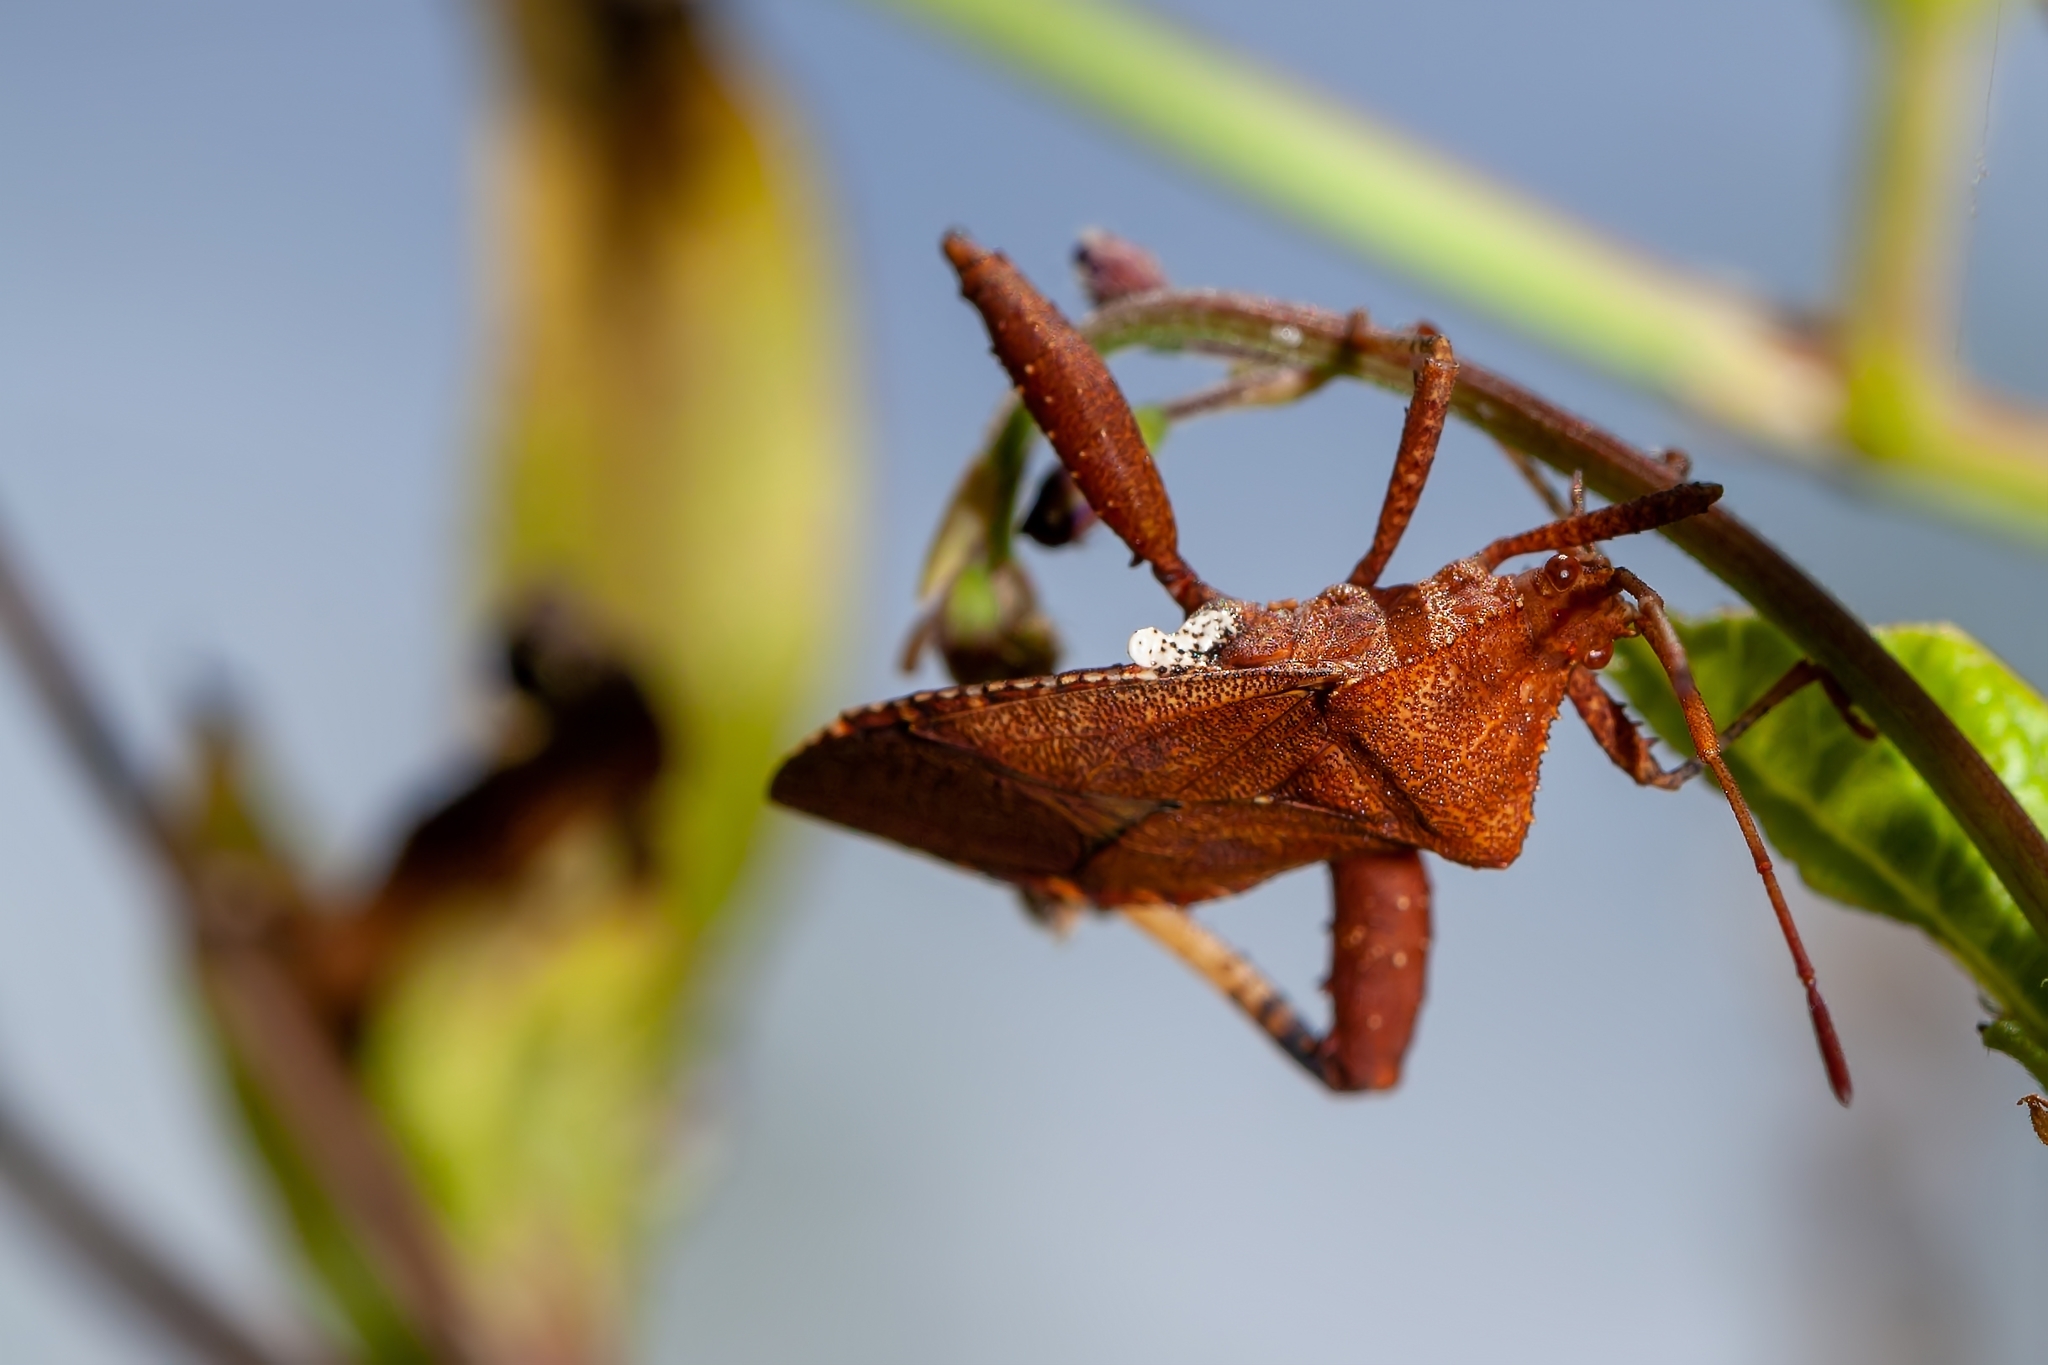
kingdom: Animalia
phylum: Arthropoda
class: Insecta
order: Hemiptera
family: Coreidae
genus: Euthochtha
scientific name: Euthochtha galeator
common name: Helmeted squash bug
